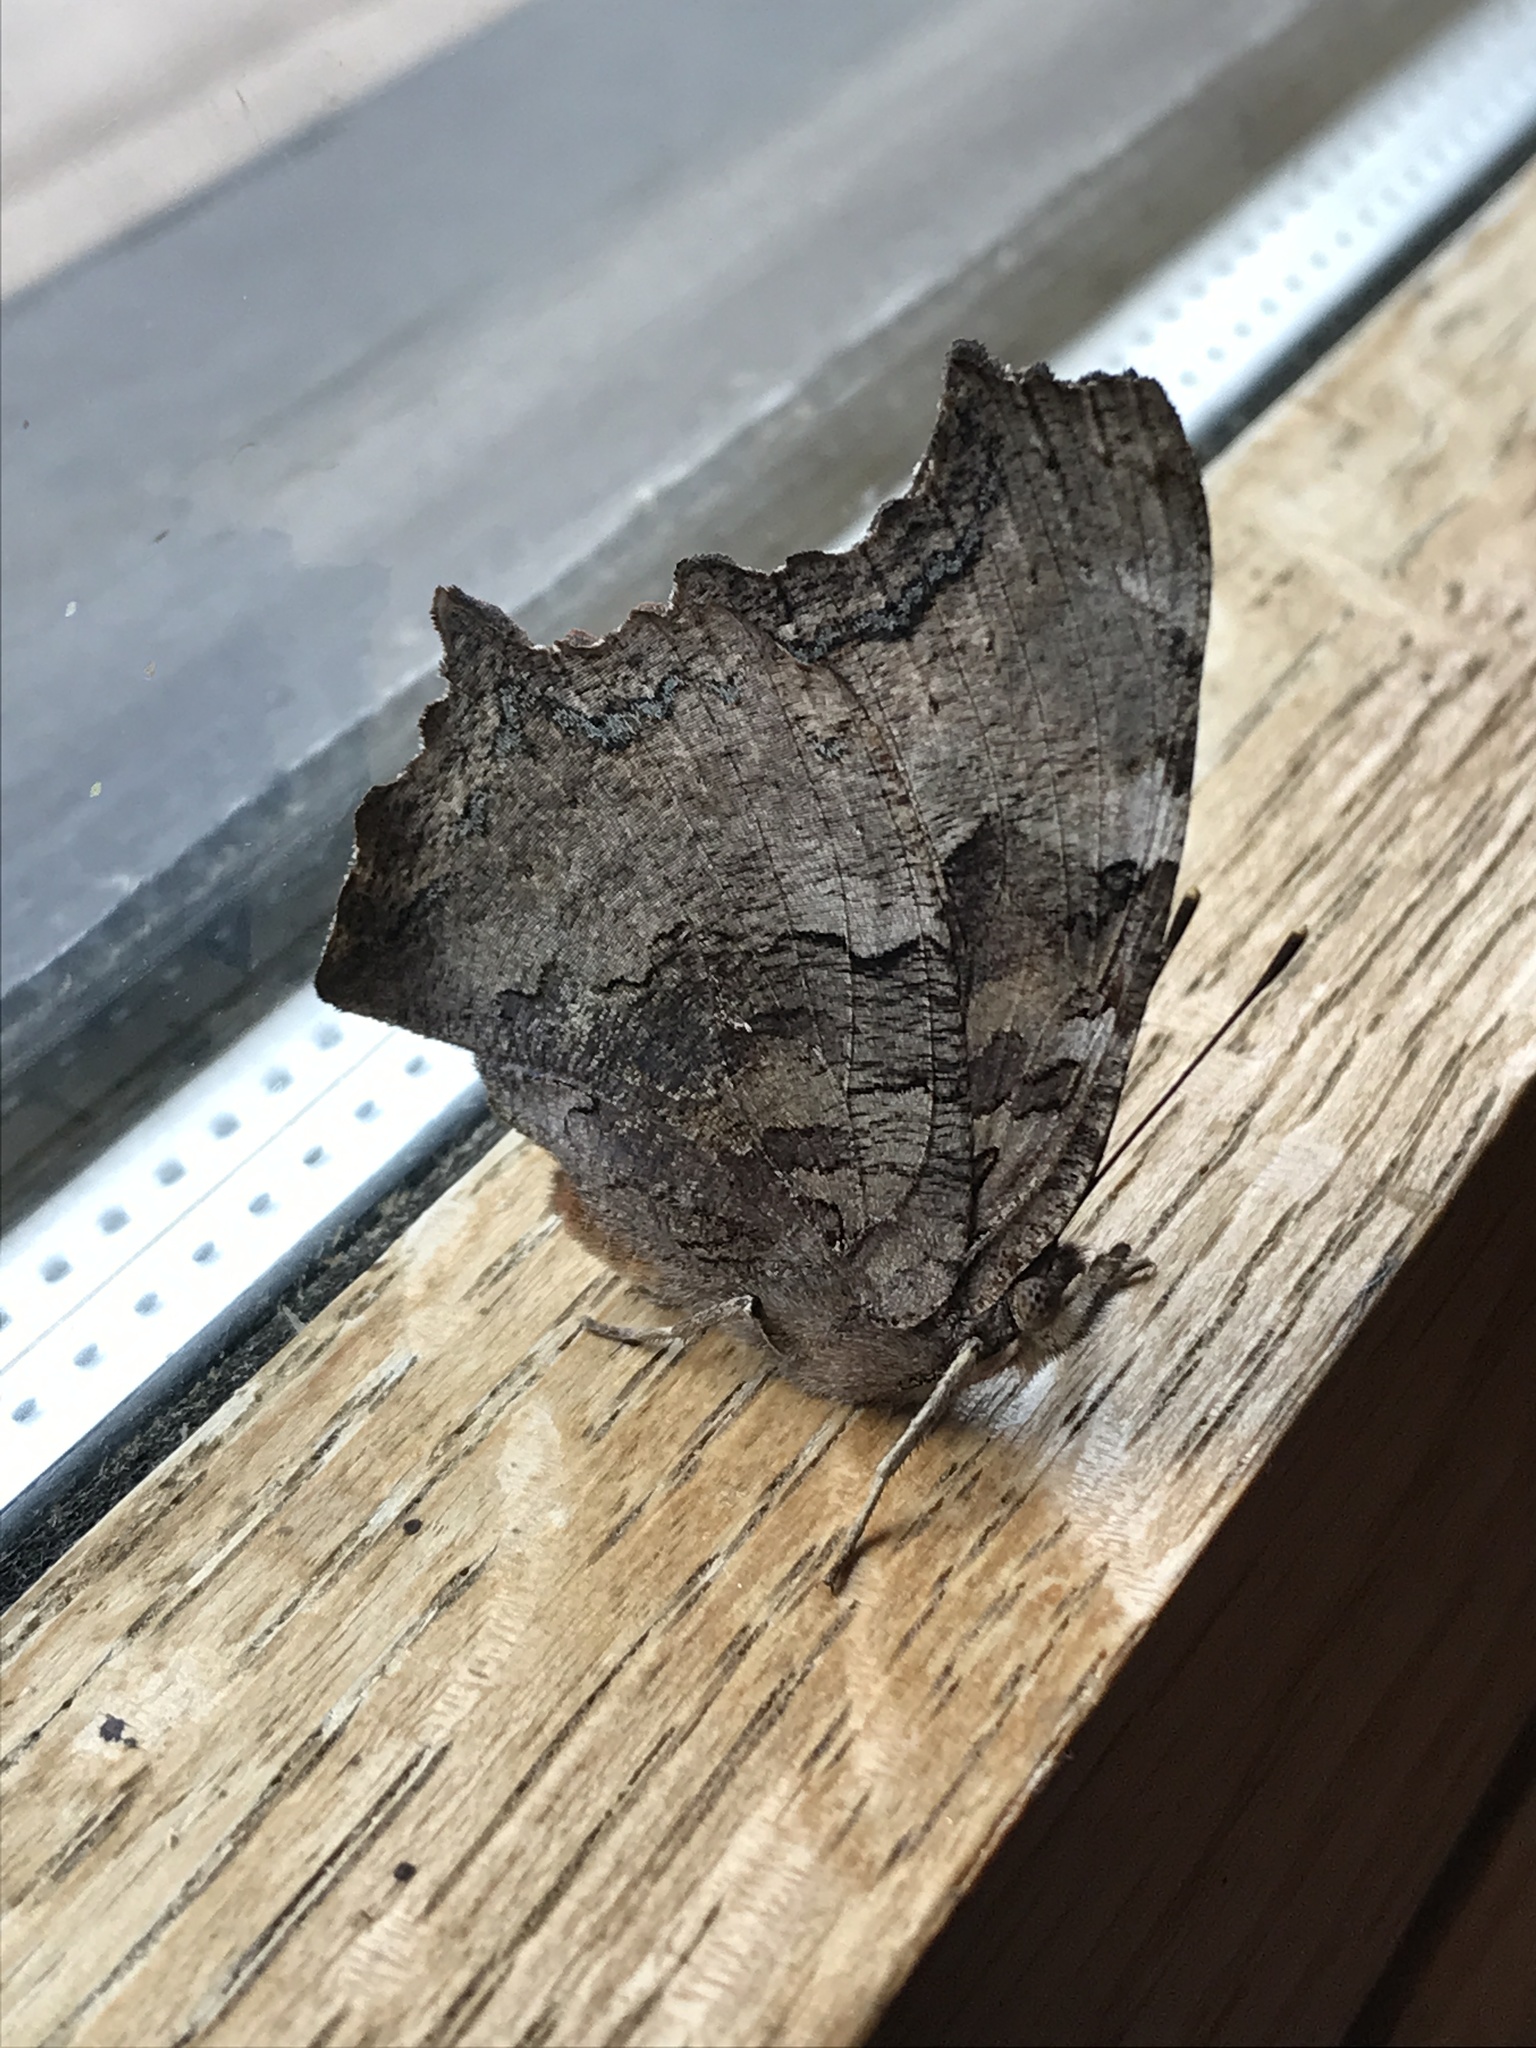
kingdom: Animalia
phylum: Arthropoda
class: Insecta
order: Lepidoptera
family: Nymphalidae
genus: Polygonia
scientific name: Polygonia vaualbum
